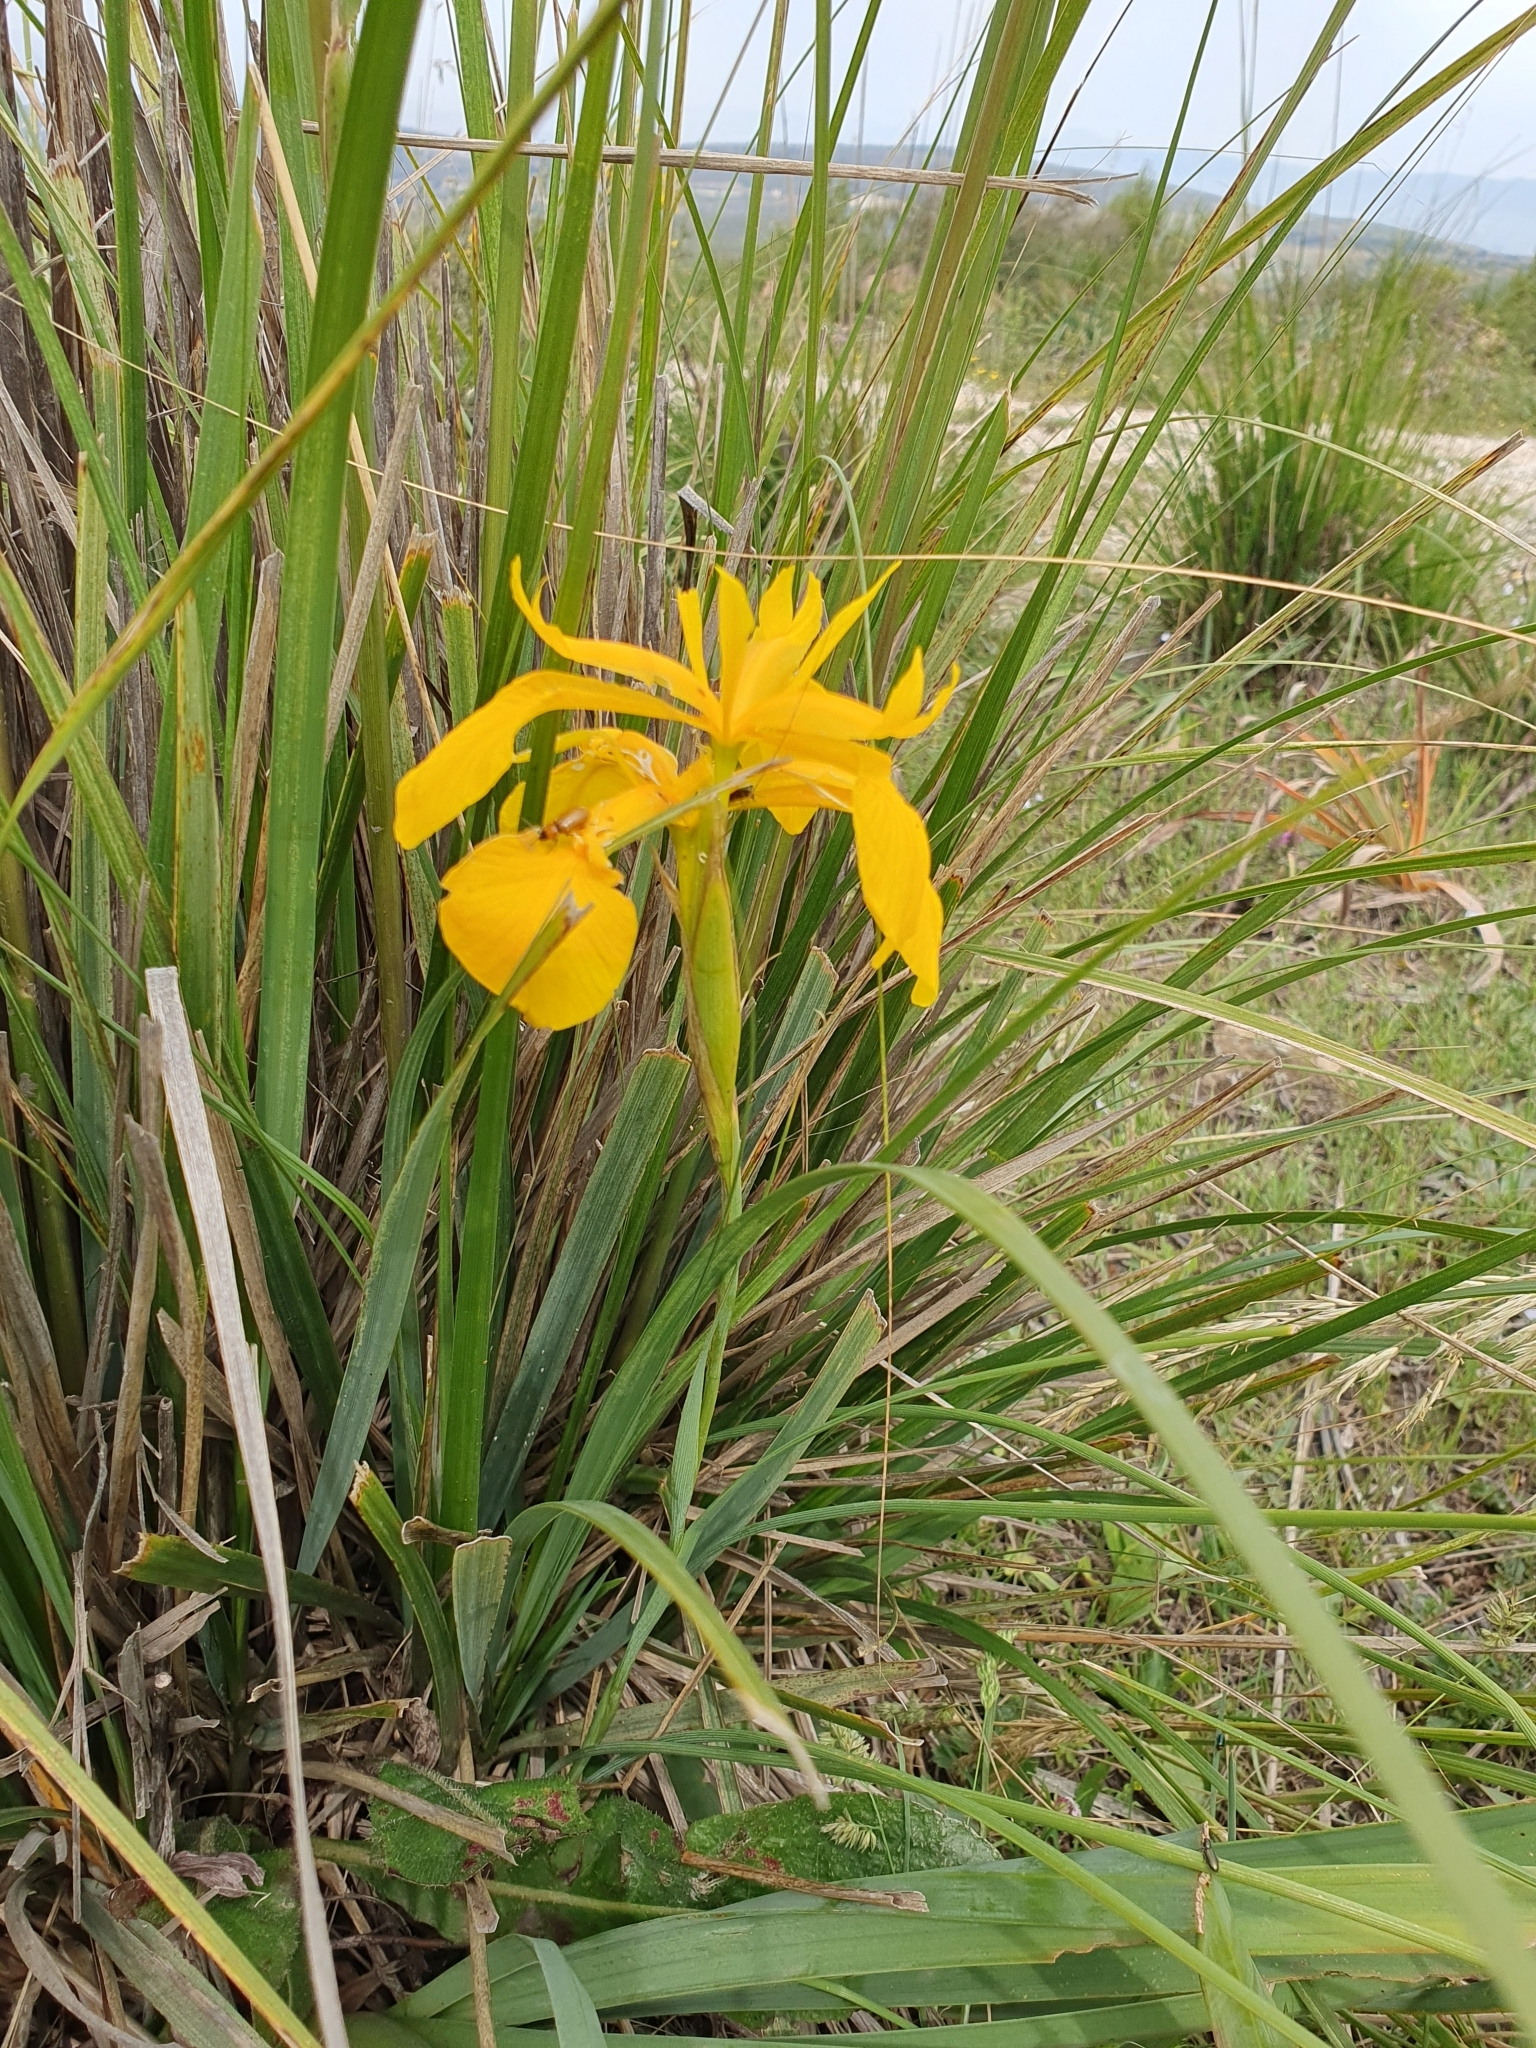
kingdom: Plantae
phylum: Tracheophyta
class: Liliopsida
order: Asparagales
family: Iridaceae
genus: Iris
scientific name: Iris juncea
